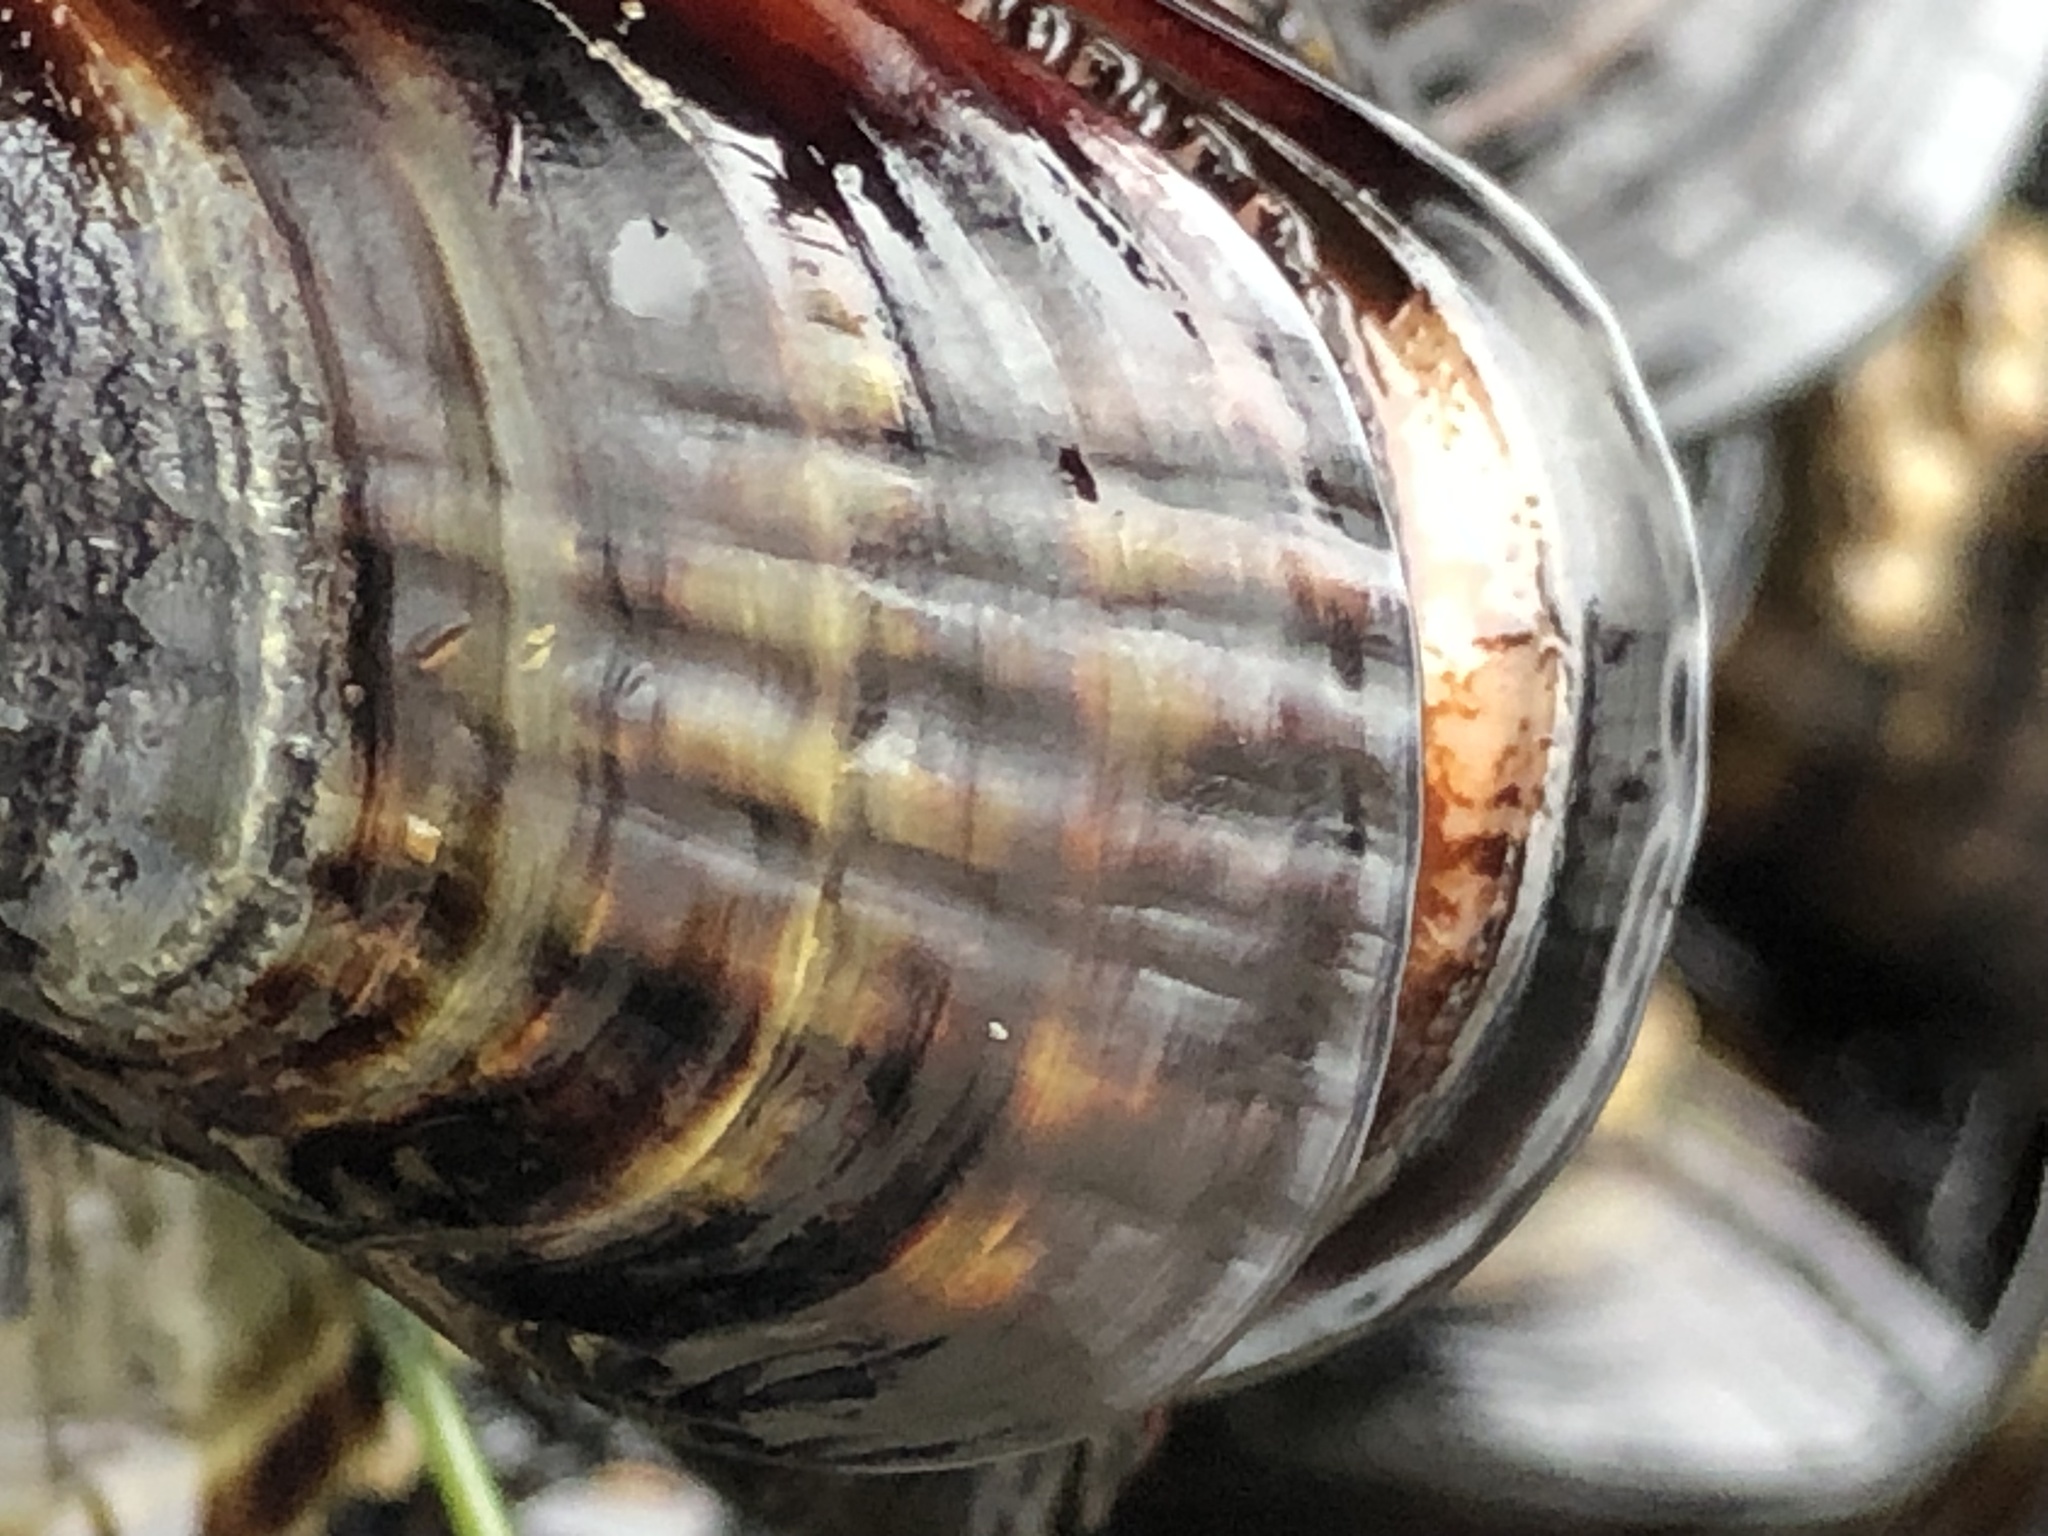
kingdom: Animalia
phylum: Mollusca
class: Bivalvia
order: Mytilida
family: Mytilidae
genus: Mytilus
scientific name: Mytilus californianus
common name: California mussel
